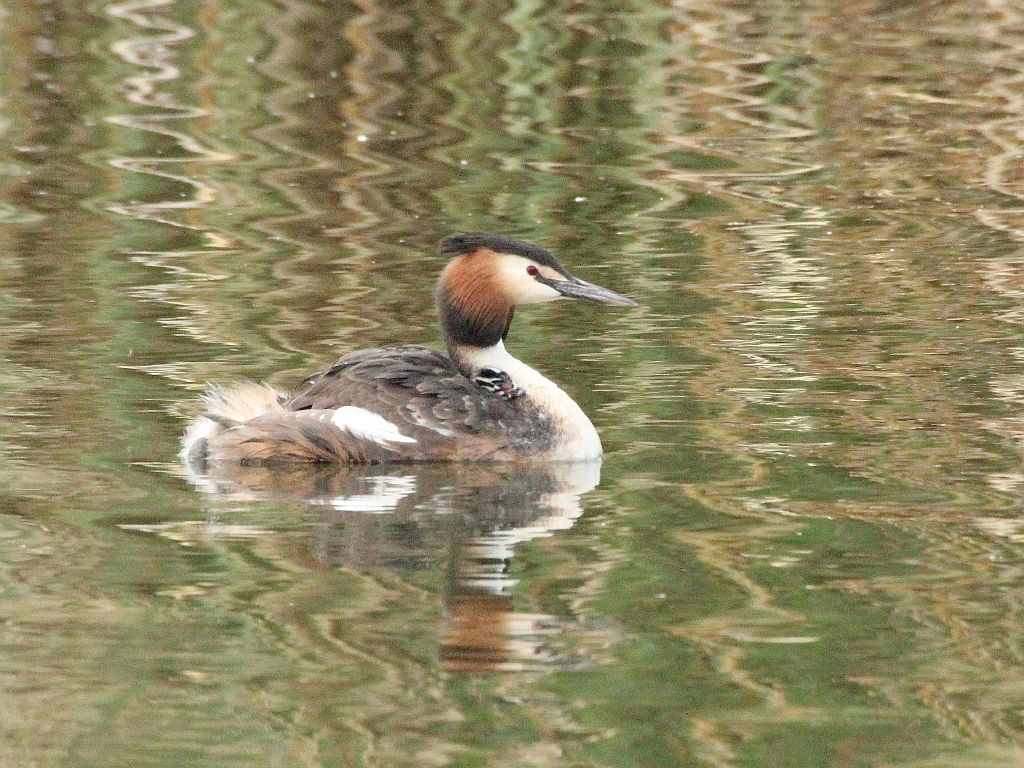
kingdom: Animalia
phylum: Chordata
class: Aves
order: Podicipediformes
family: Podicipedidae
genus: Podiceps
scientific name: Podiceps cristatus
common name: Great crested grebe
